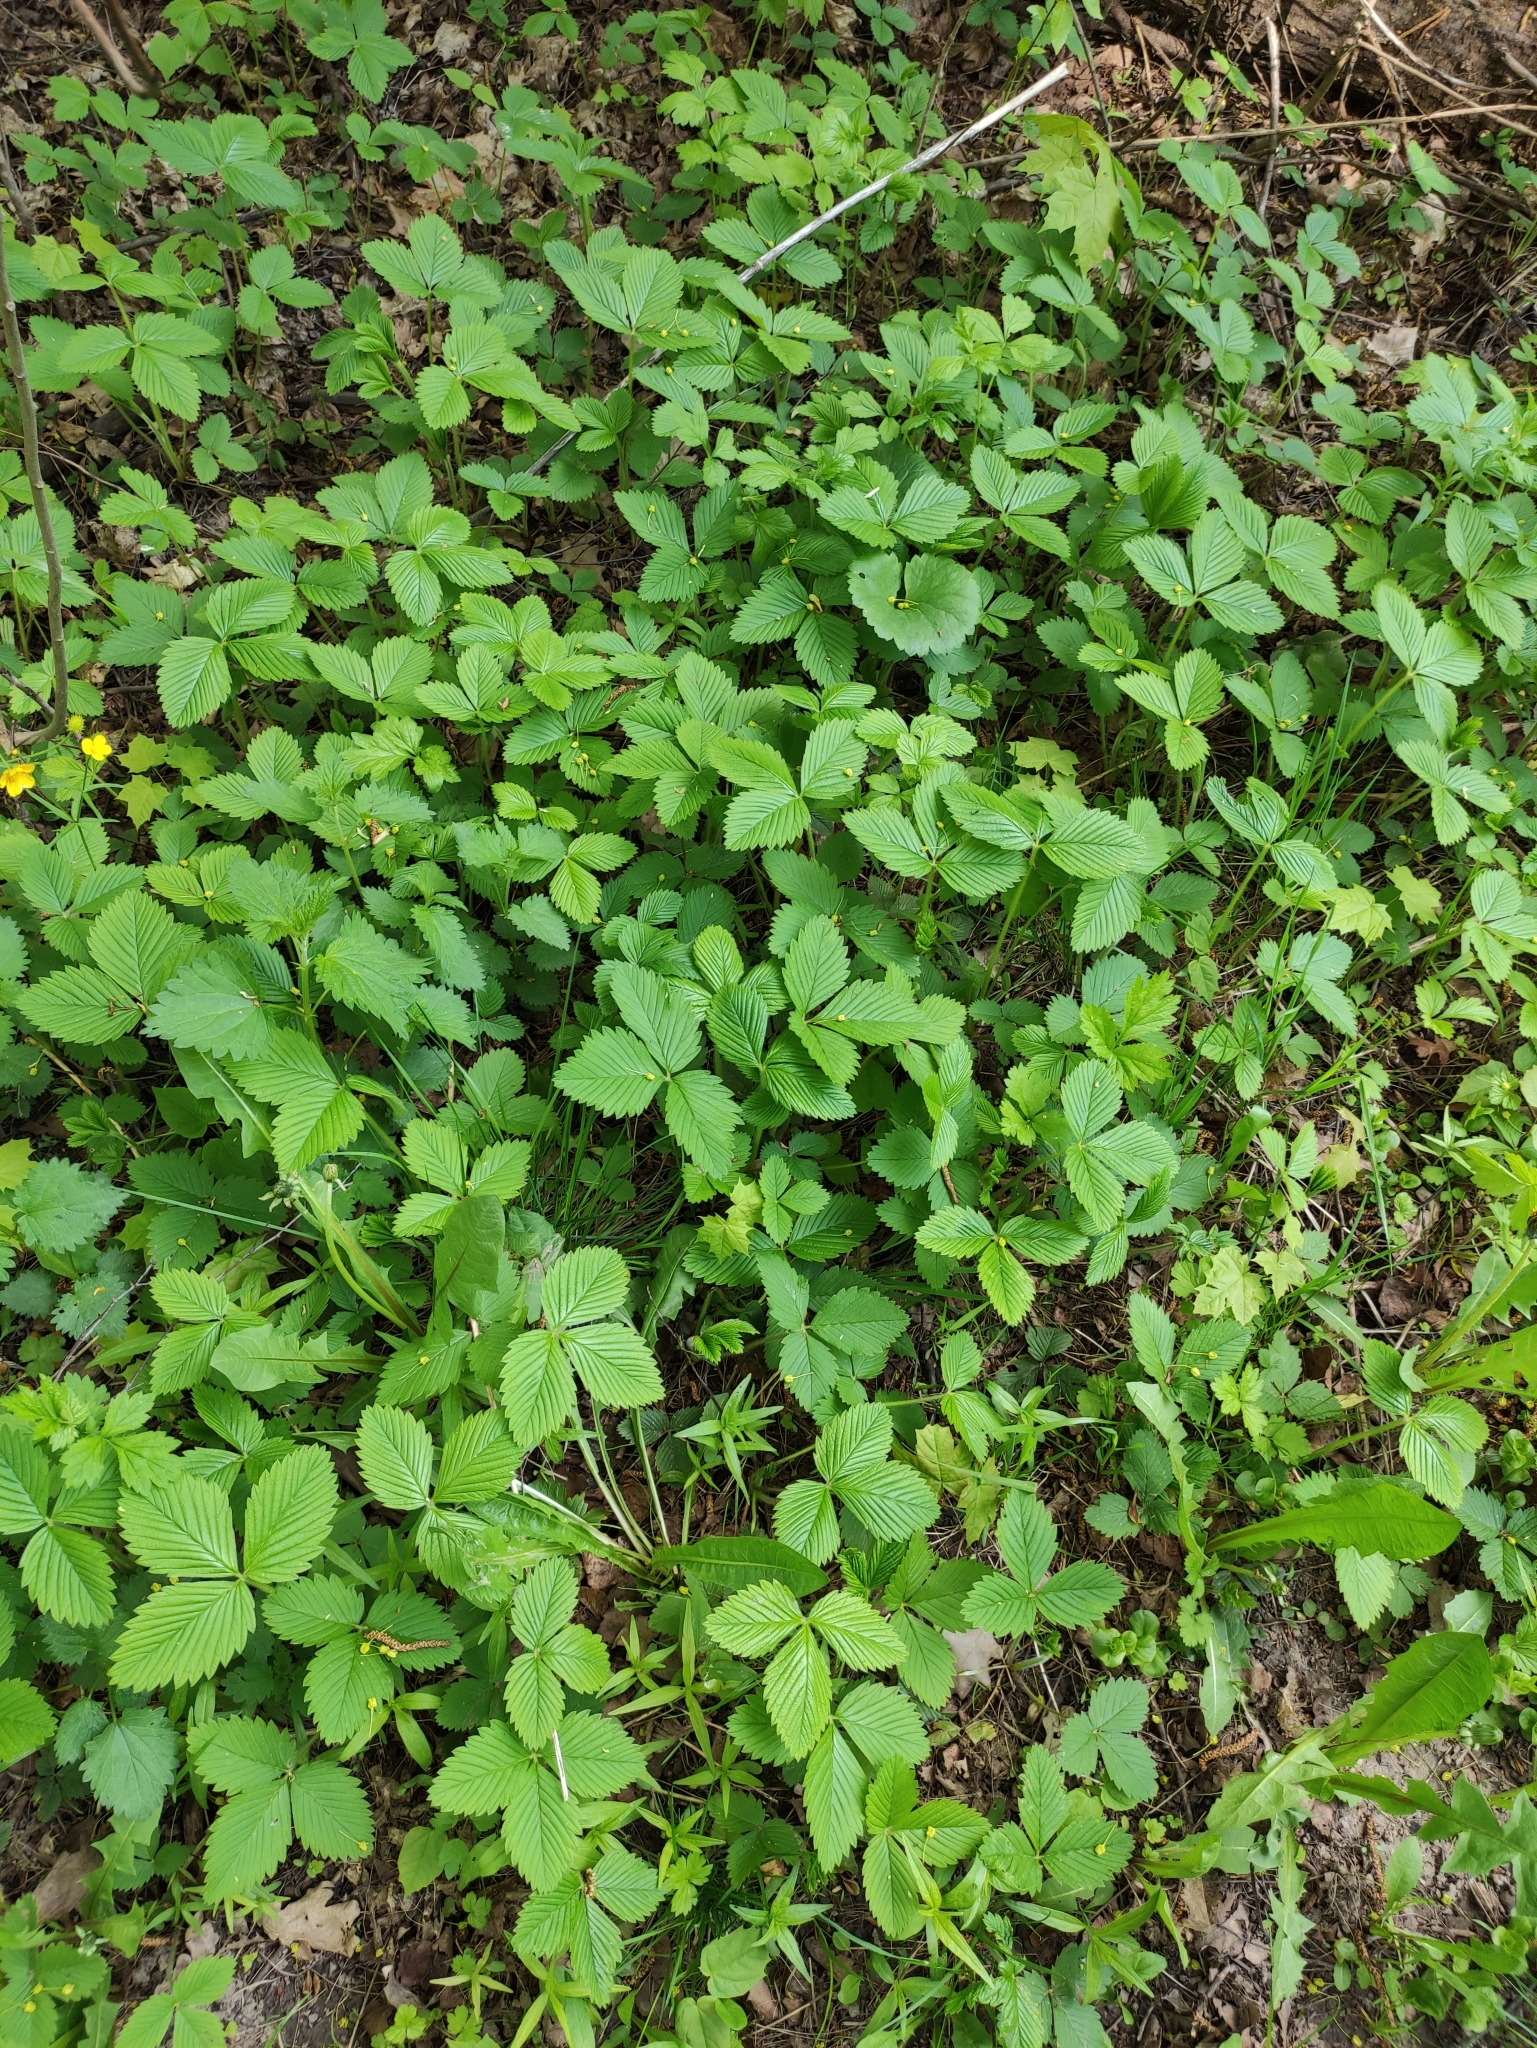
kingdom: Plantae
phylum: Tracheophyta
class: Magnoliopsida
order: Rosales
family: Rosaceae
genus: Fragaria
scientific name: Fragaria moschata
